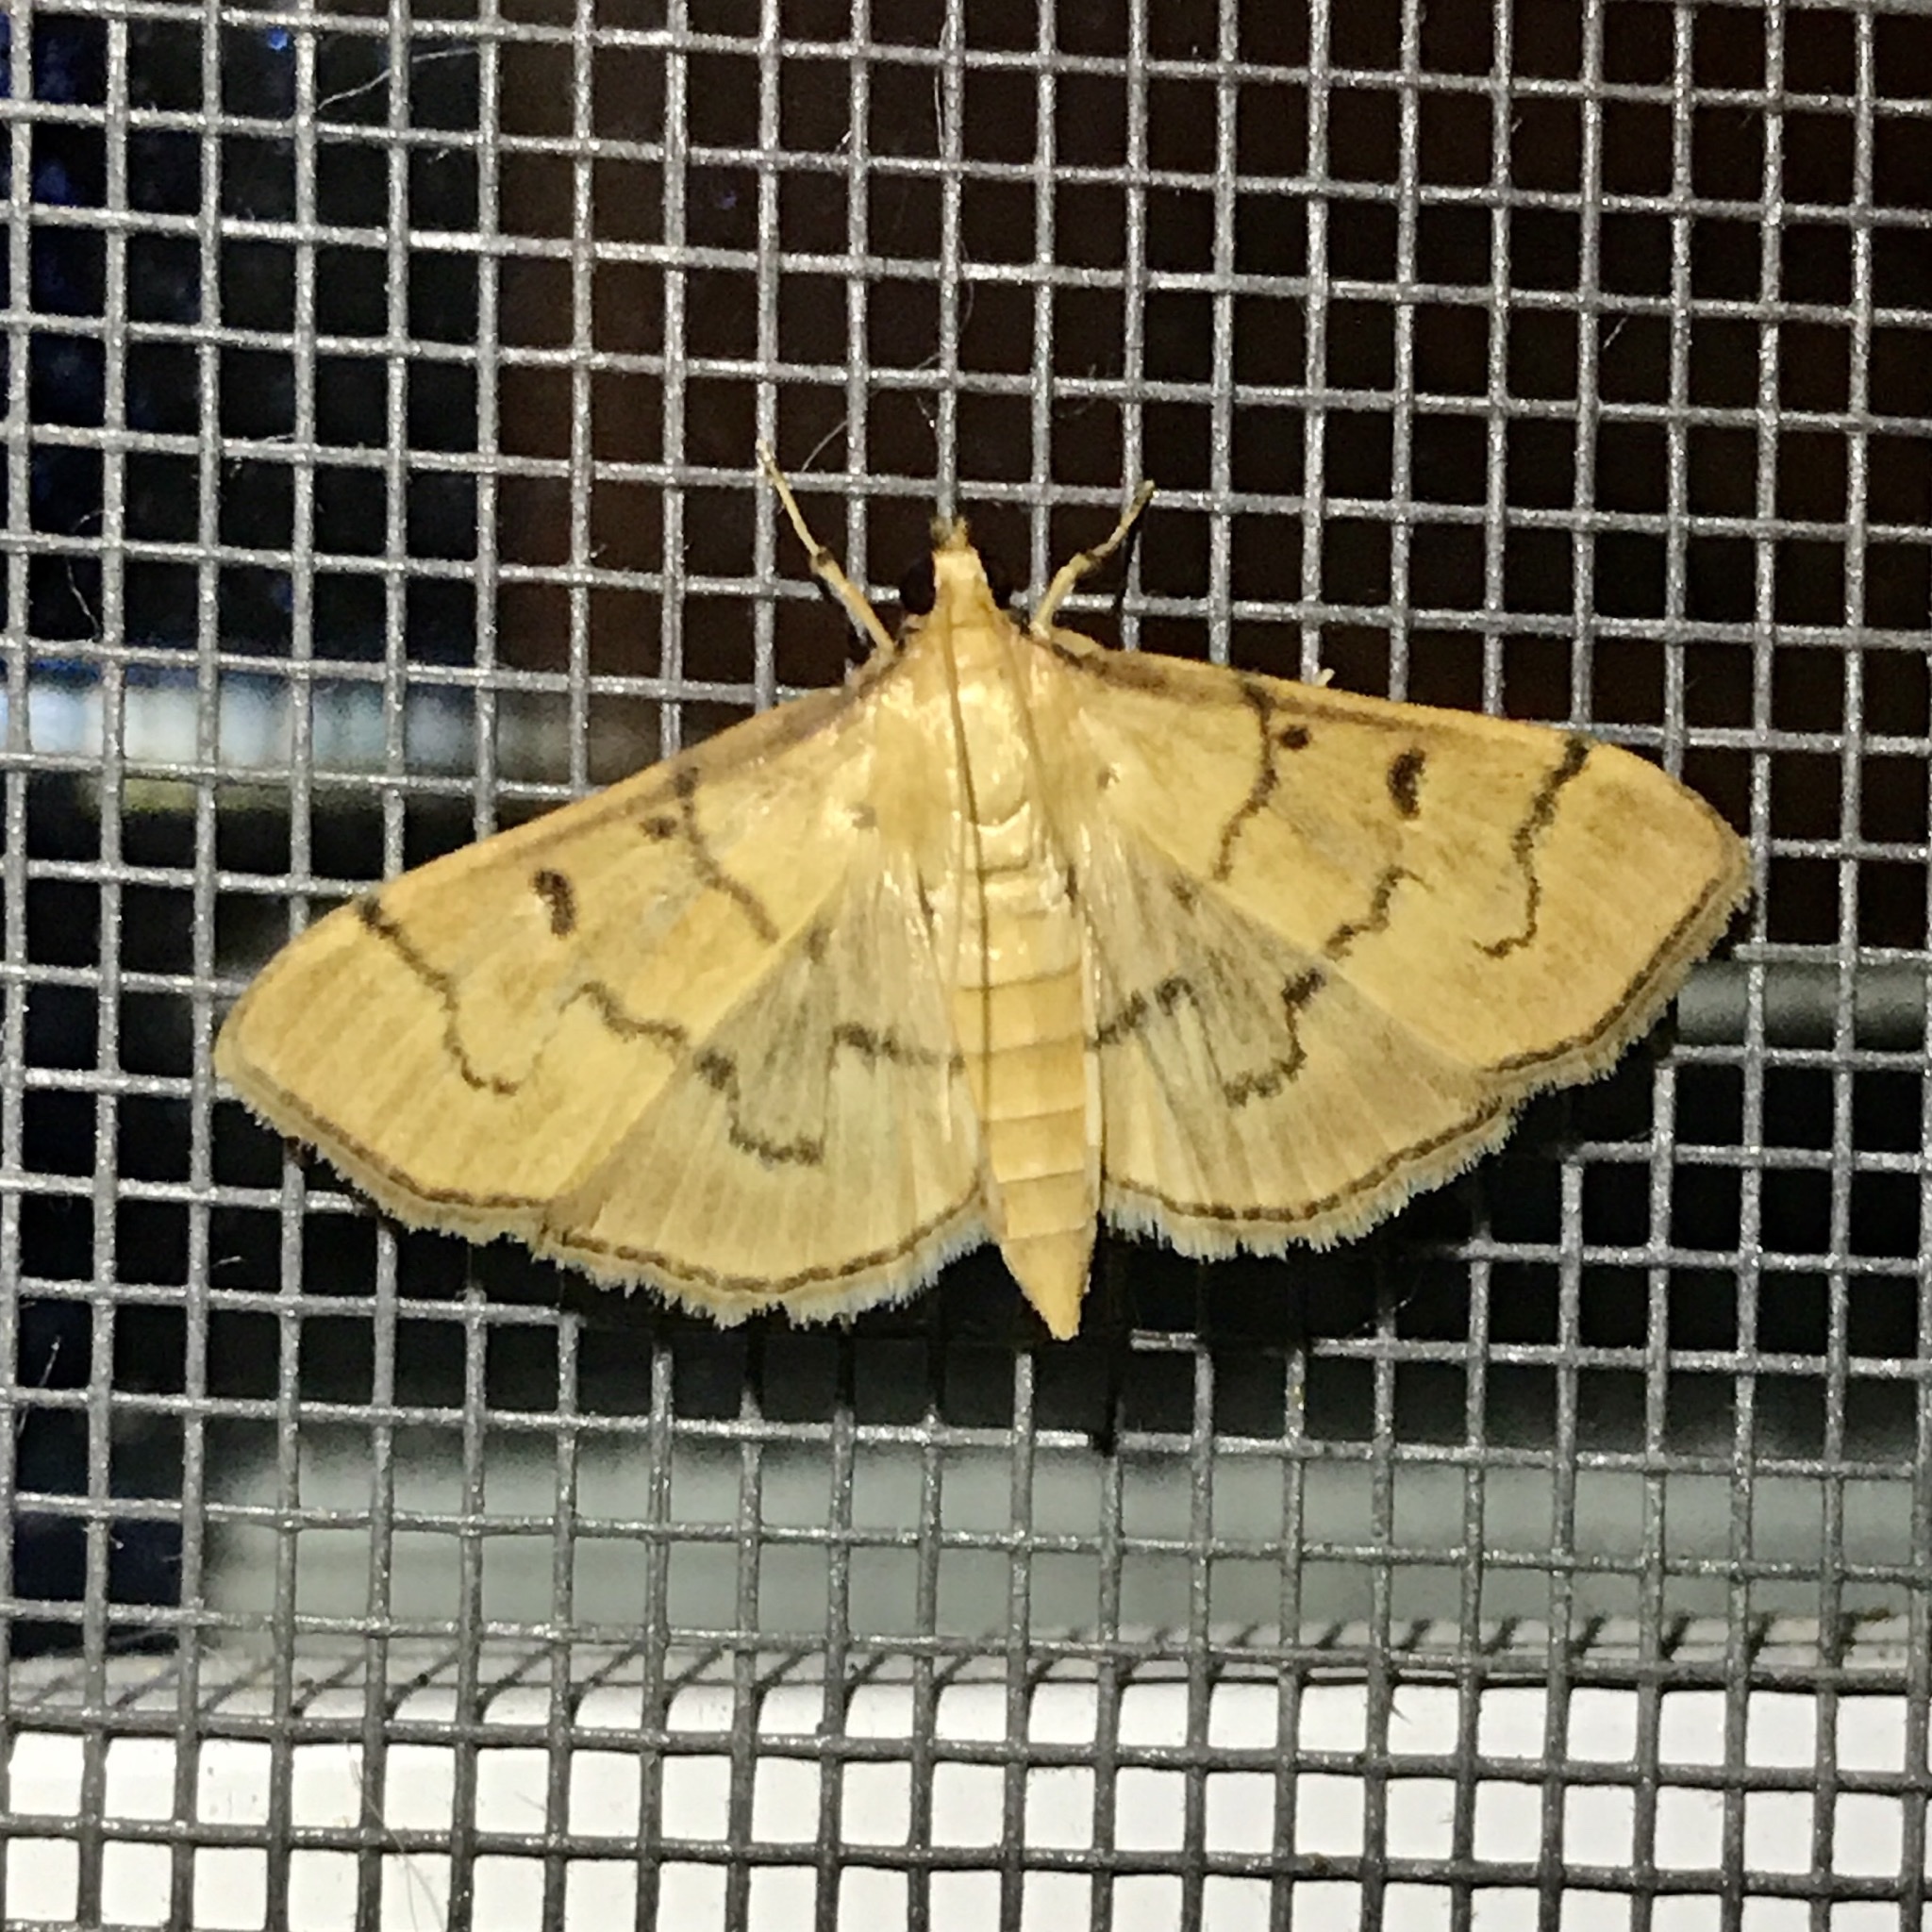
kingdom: Animalia
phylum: Arthropoda
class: Insecta
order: Lepidoptera
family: Crambidae
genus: Herpetogramma
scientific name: Herpetogramma theseusalis
